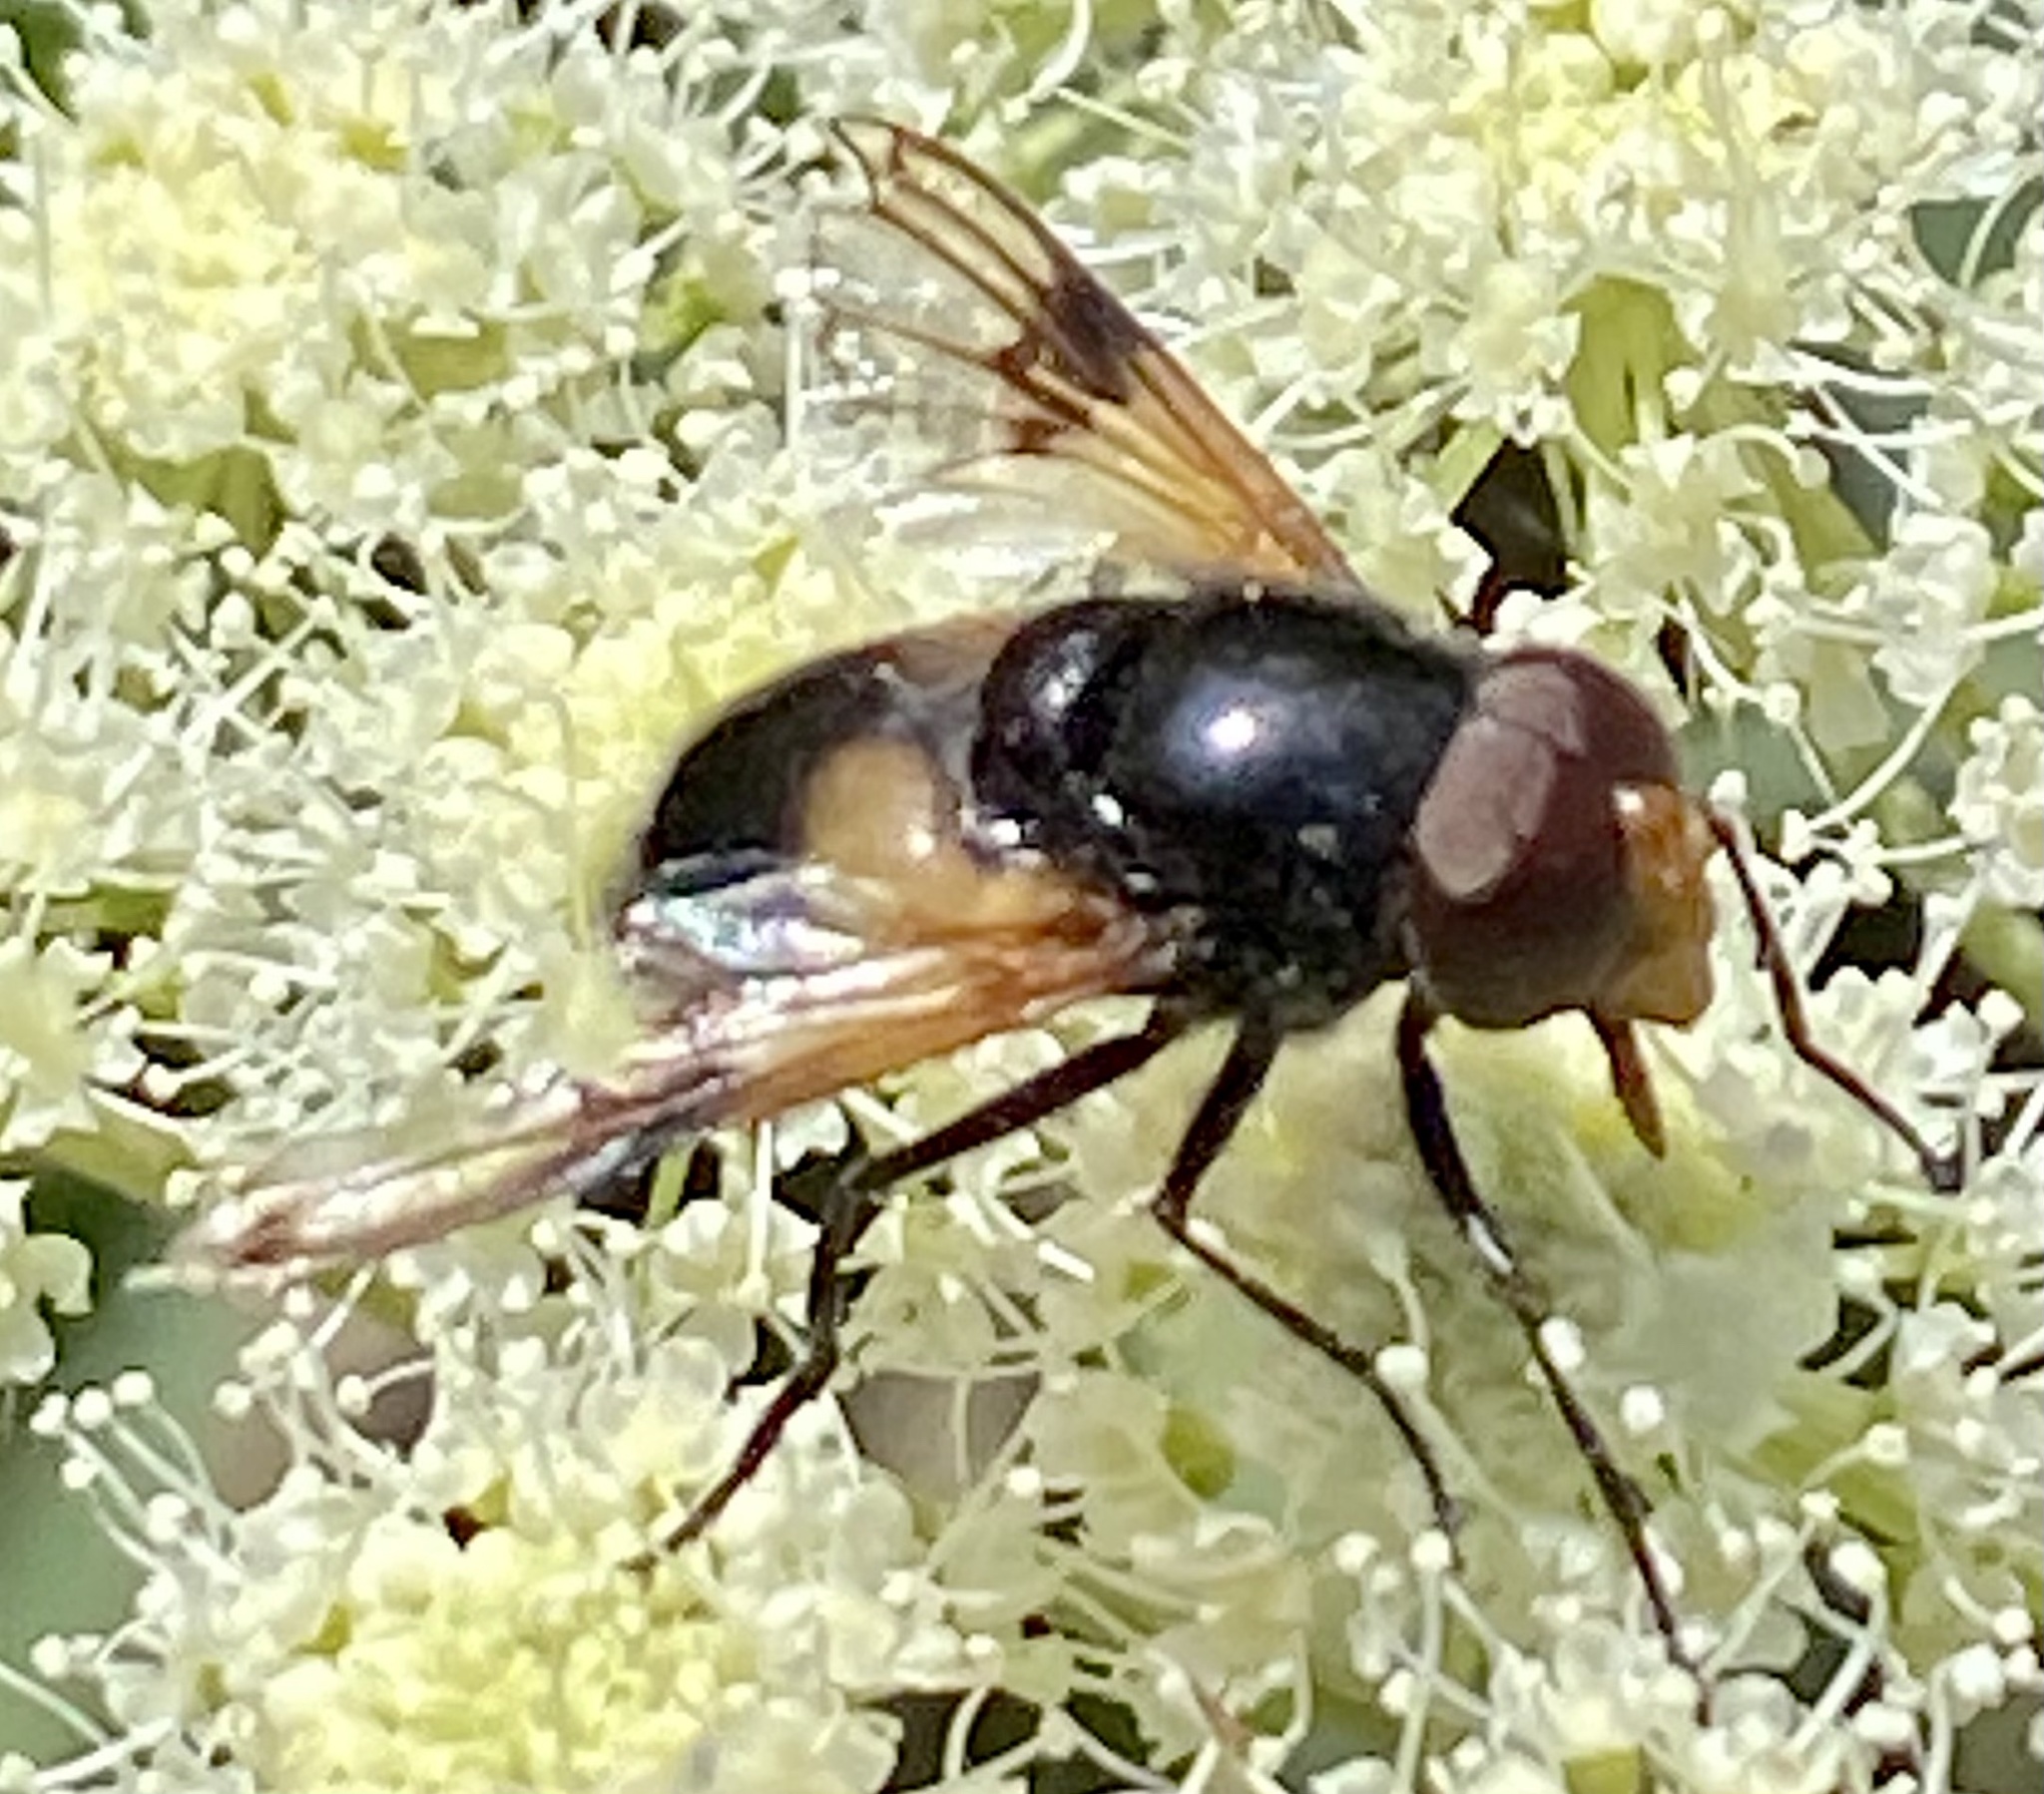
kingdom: Animalia
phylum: Arthropoda
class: Insecta
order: Diptera
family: Syrphidae
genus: Volucella
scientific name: Volucella pellucens
